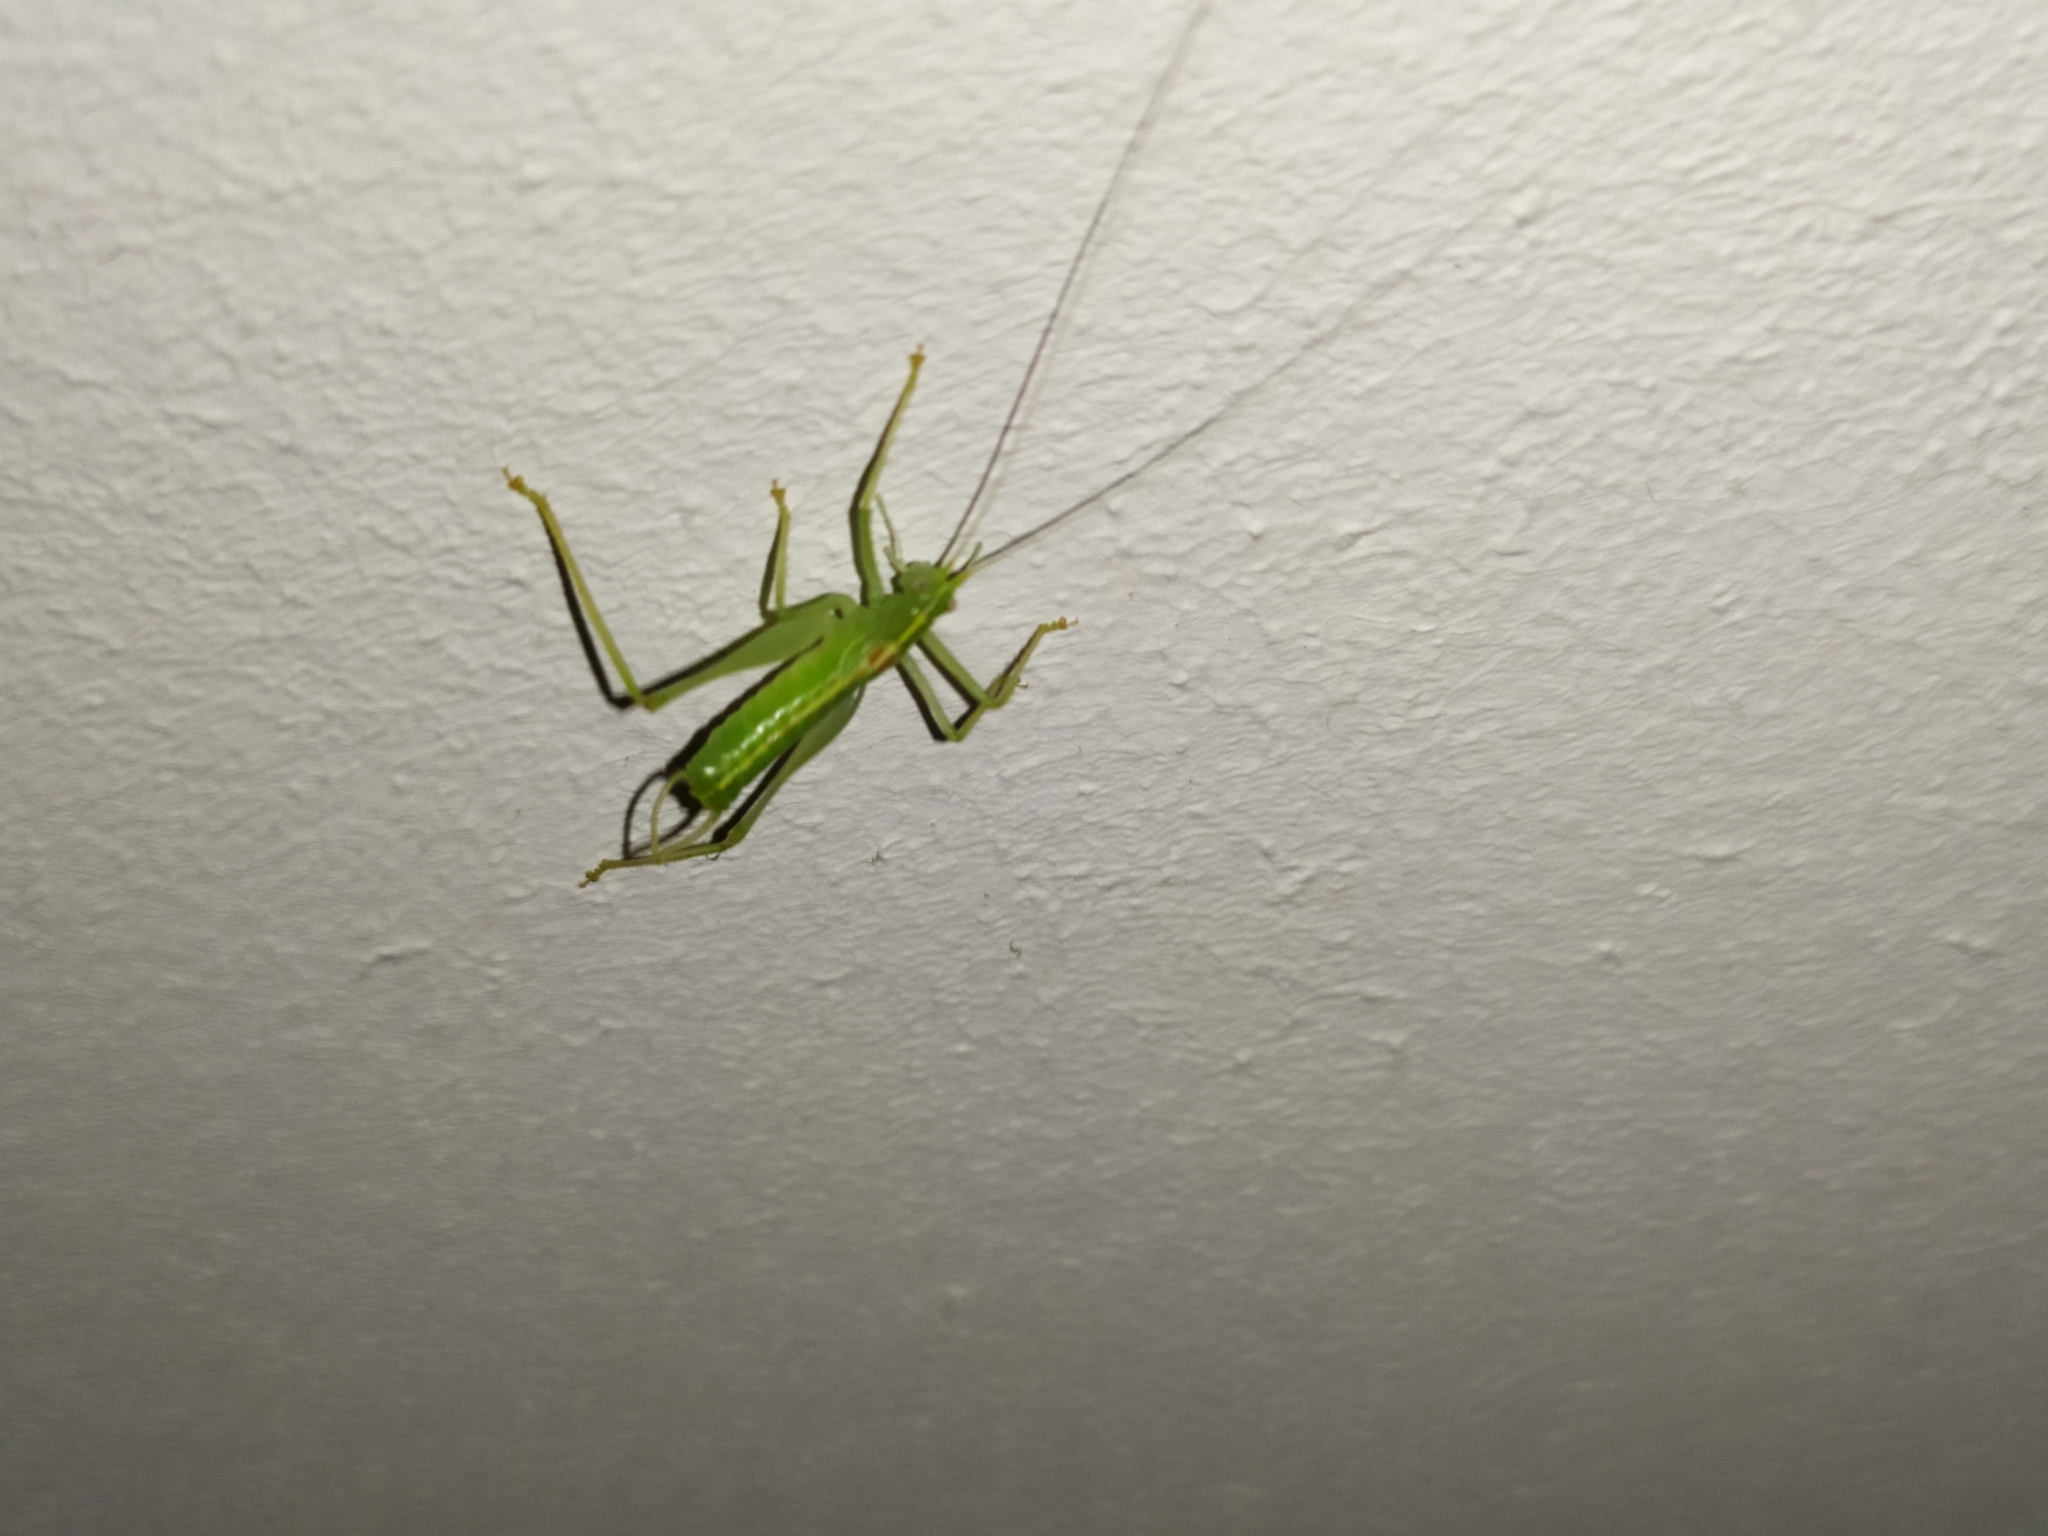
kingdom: Animalia
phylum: Arthropoda
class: Insecta
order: Orthoptera
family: Tettigoniidae
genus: Meconema
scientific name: Meconema meridionale
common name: Southern oak bush-cricket
